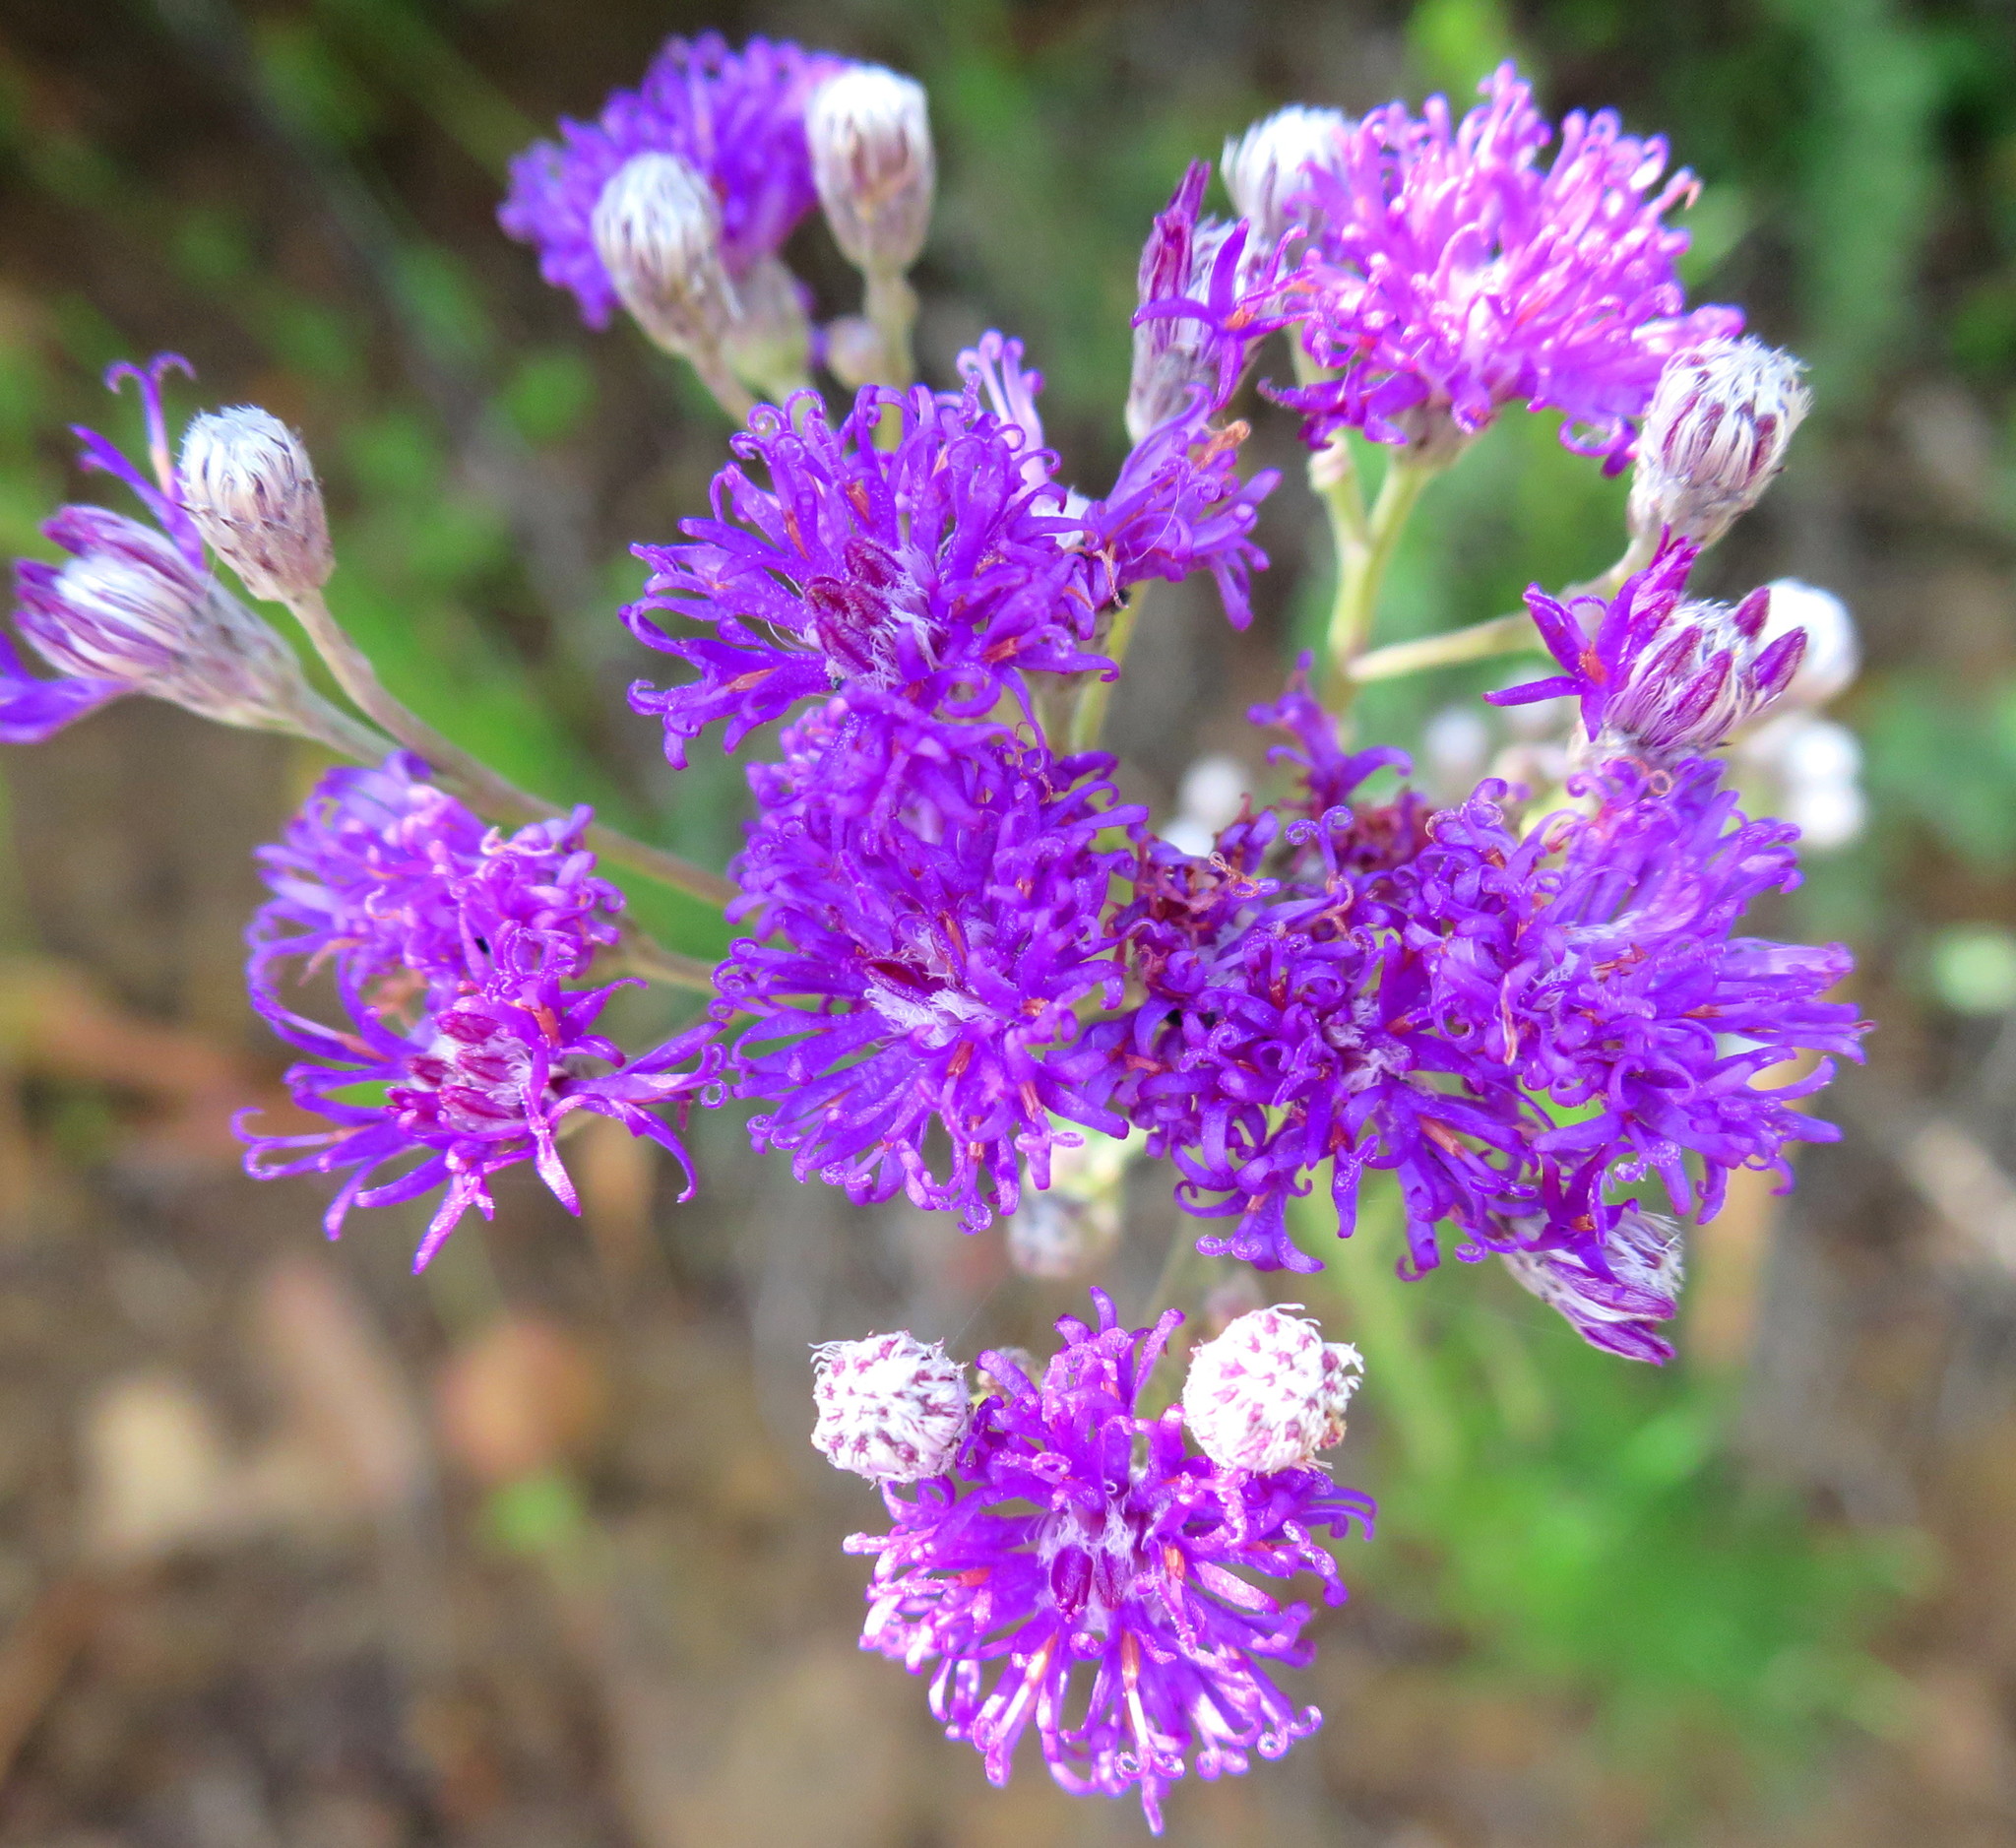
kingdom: Plantae
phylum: Tracheophyta
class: Magnoliopsida
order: Asterales
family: Asteraceae
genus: Hilliardiella
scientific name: Hilliardiella capensis
